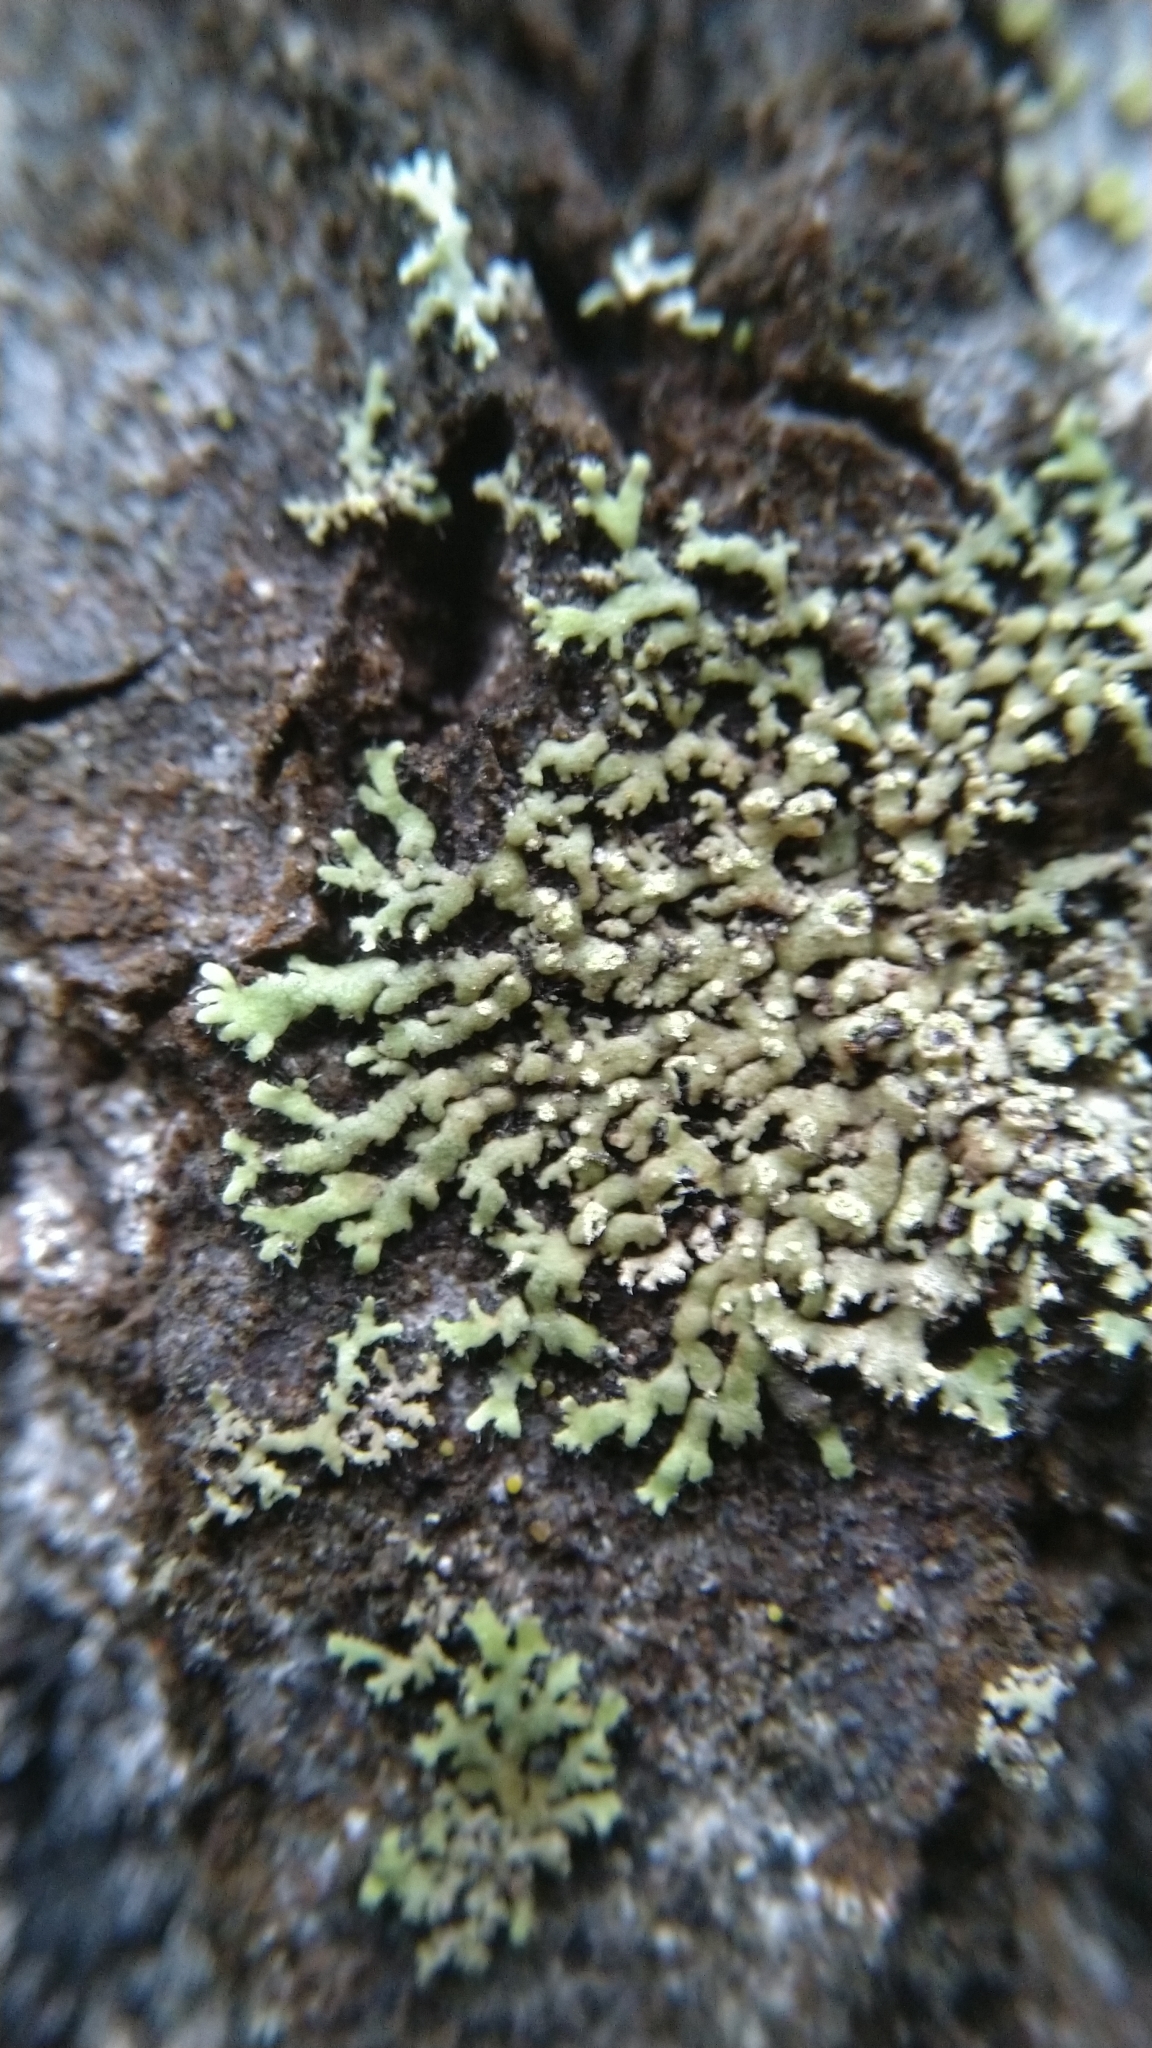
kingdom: Fungi
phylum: Ascomycota
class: Lecanoromycetes
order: Caliciales
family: Physciaceae
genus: Phaeophyscia
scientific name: Phaeophyscia orbicularis
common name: Mealy shadow lichen
